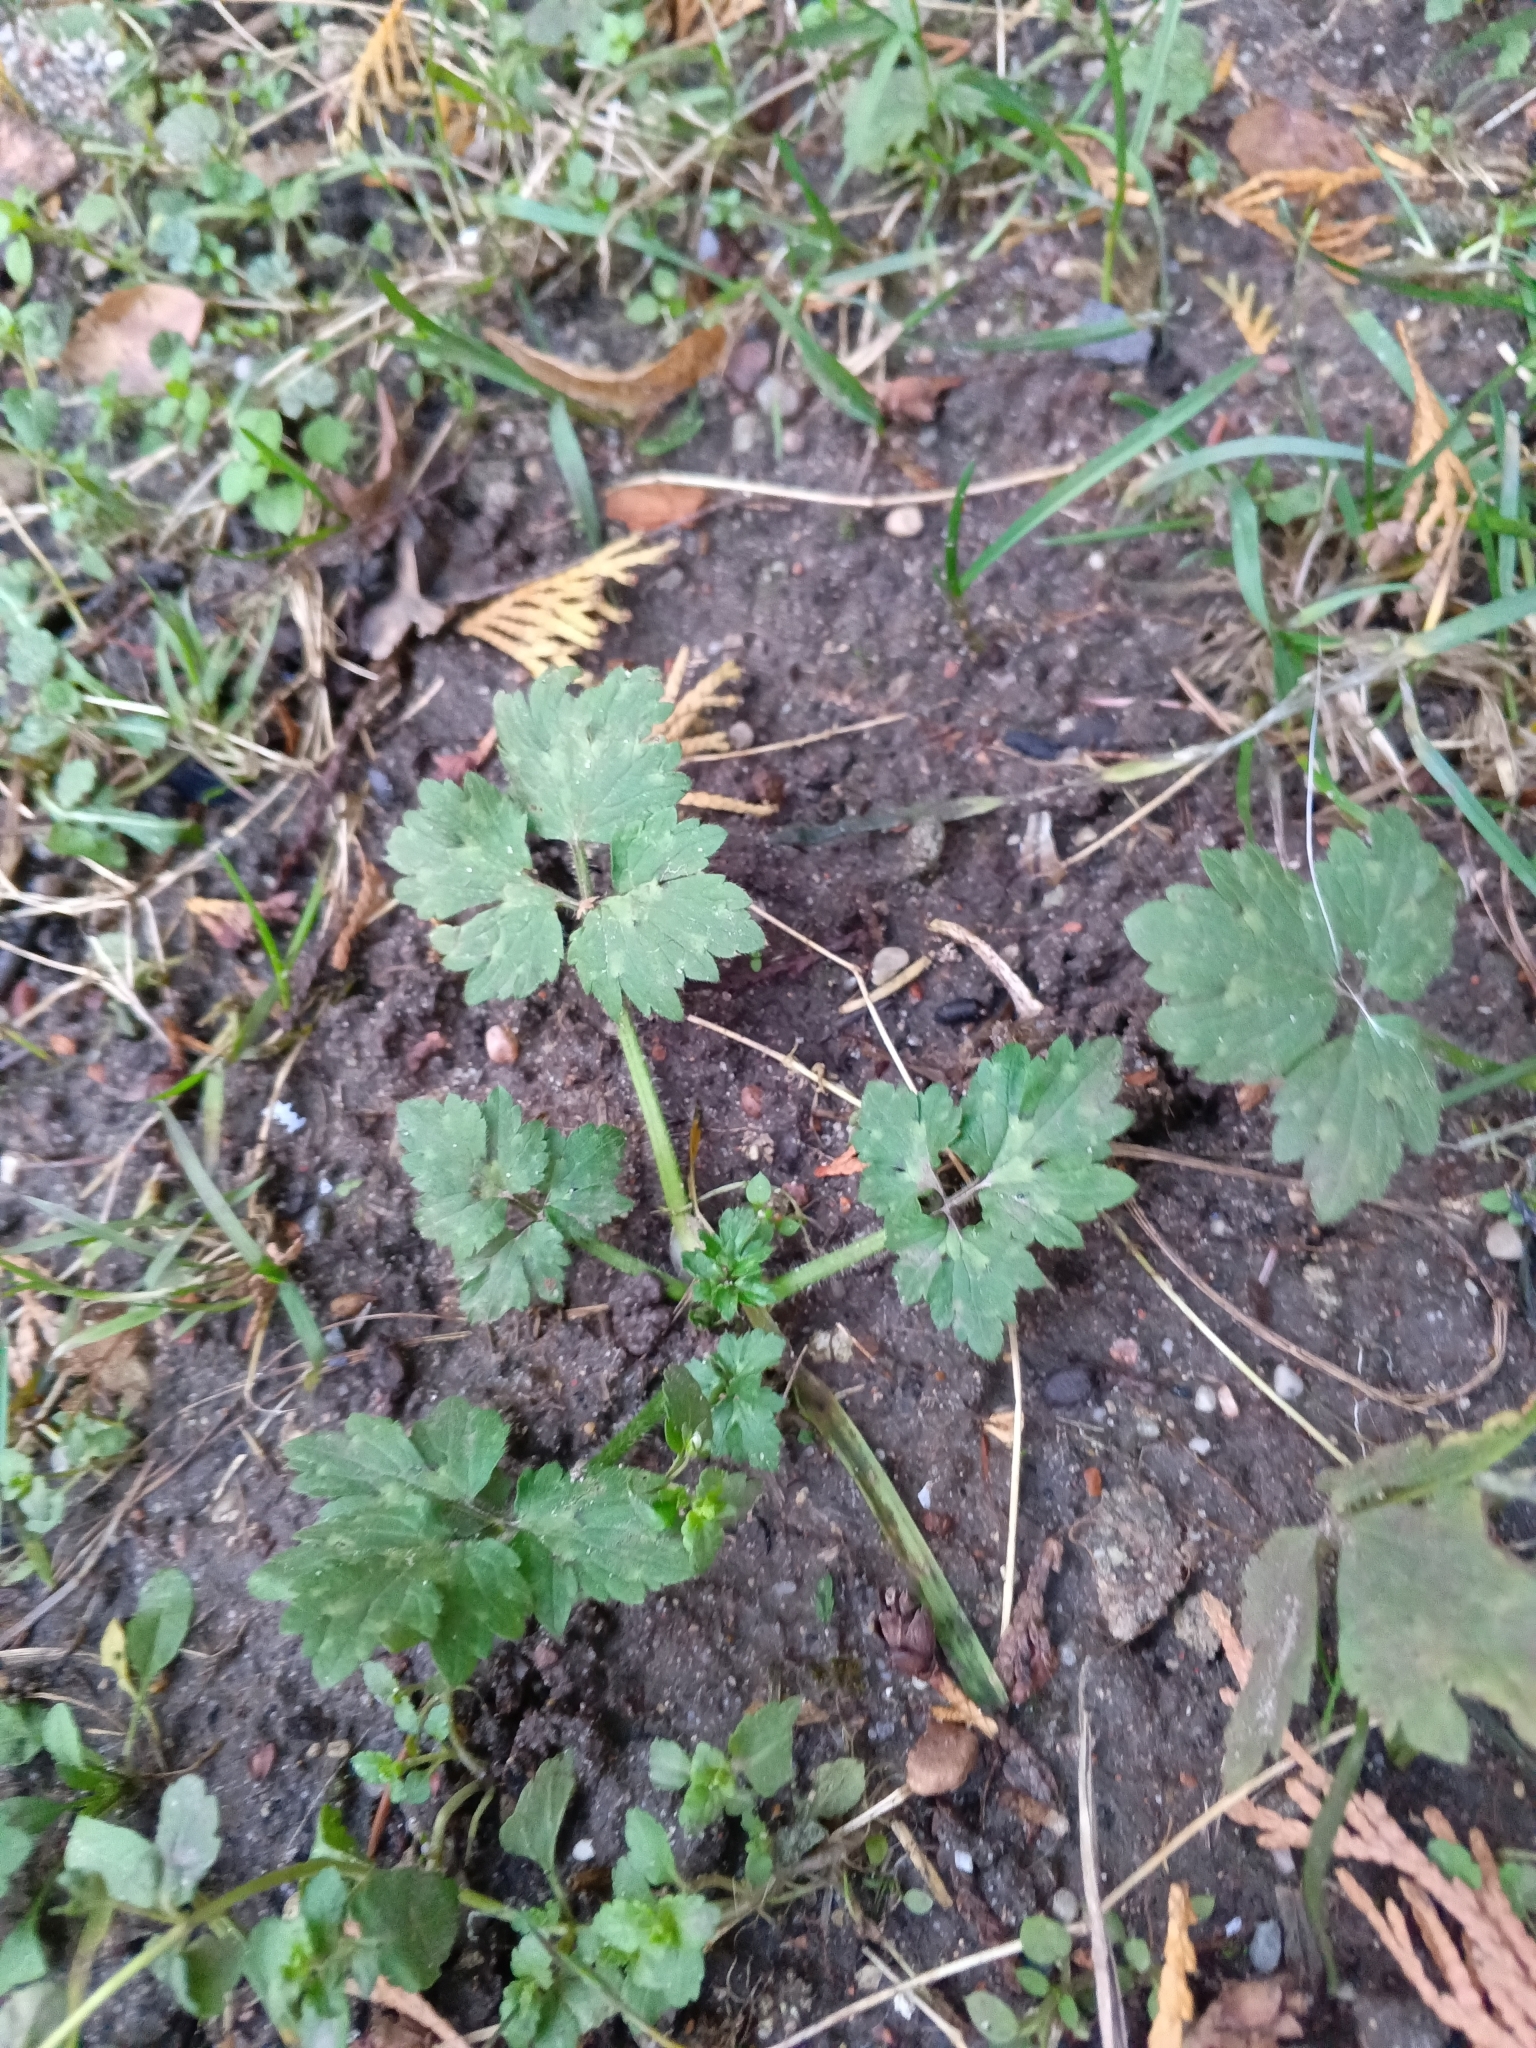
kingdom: Plantae
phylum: Tracheophyta
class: Magnoliopsida
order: Ranunculales
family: Ranunculaceae
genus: Ranunculus
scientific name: Ranunculus repens
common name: Creeping buttercup
